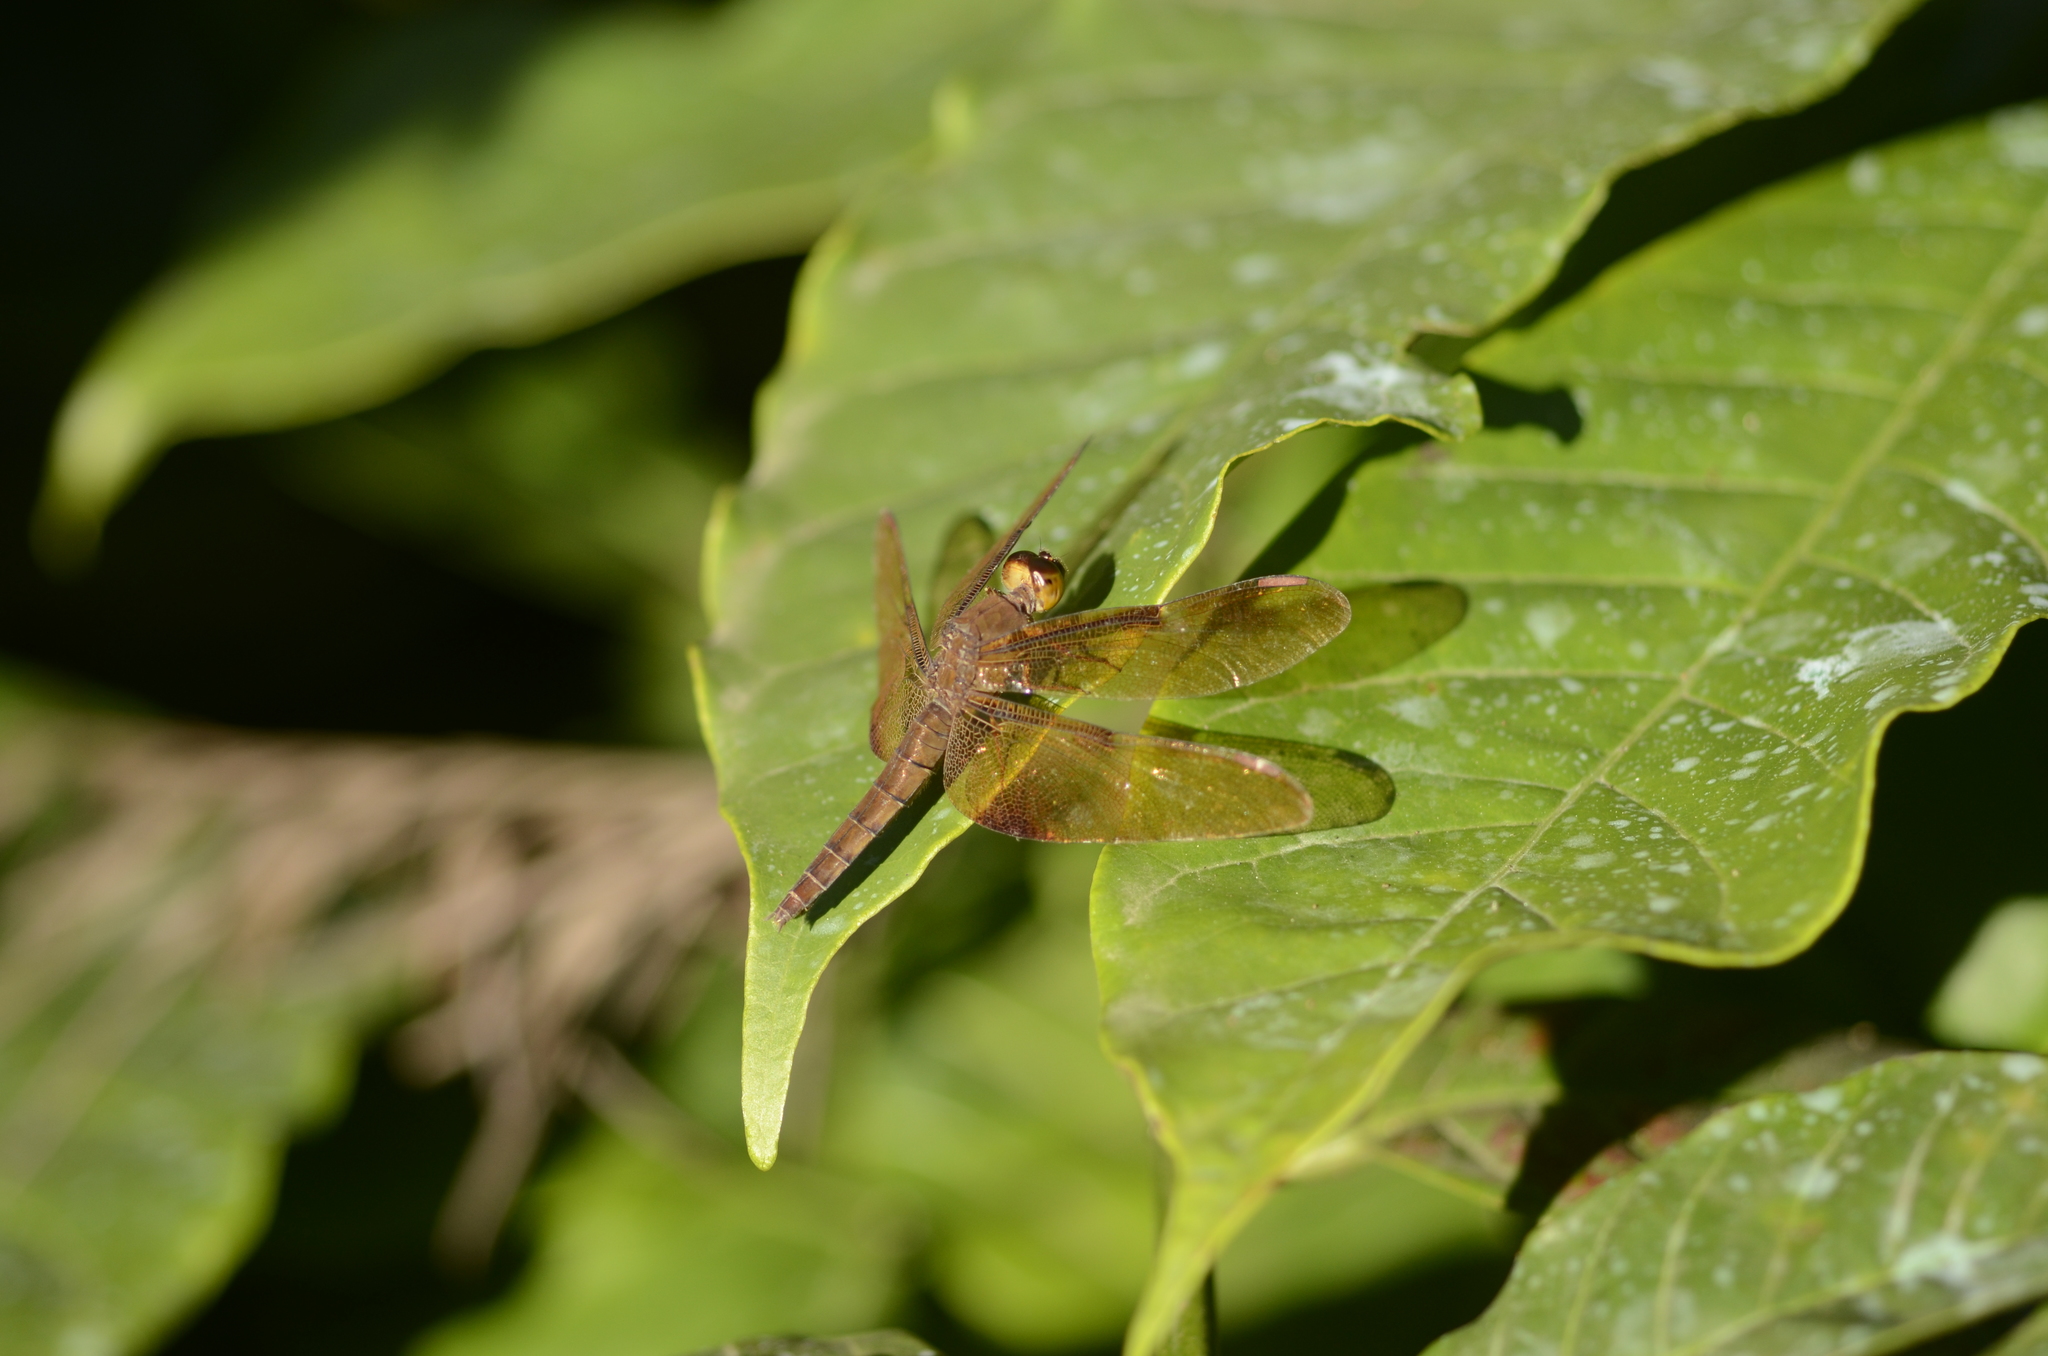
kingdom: Animalia
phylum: Arthropoda
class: Insecta
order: Odonata
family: Libellulidae
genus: Neurothemis
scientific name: Neurothemis fulvia
